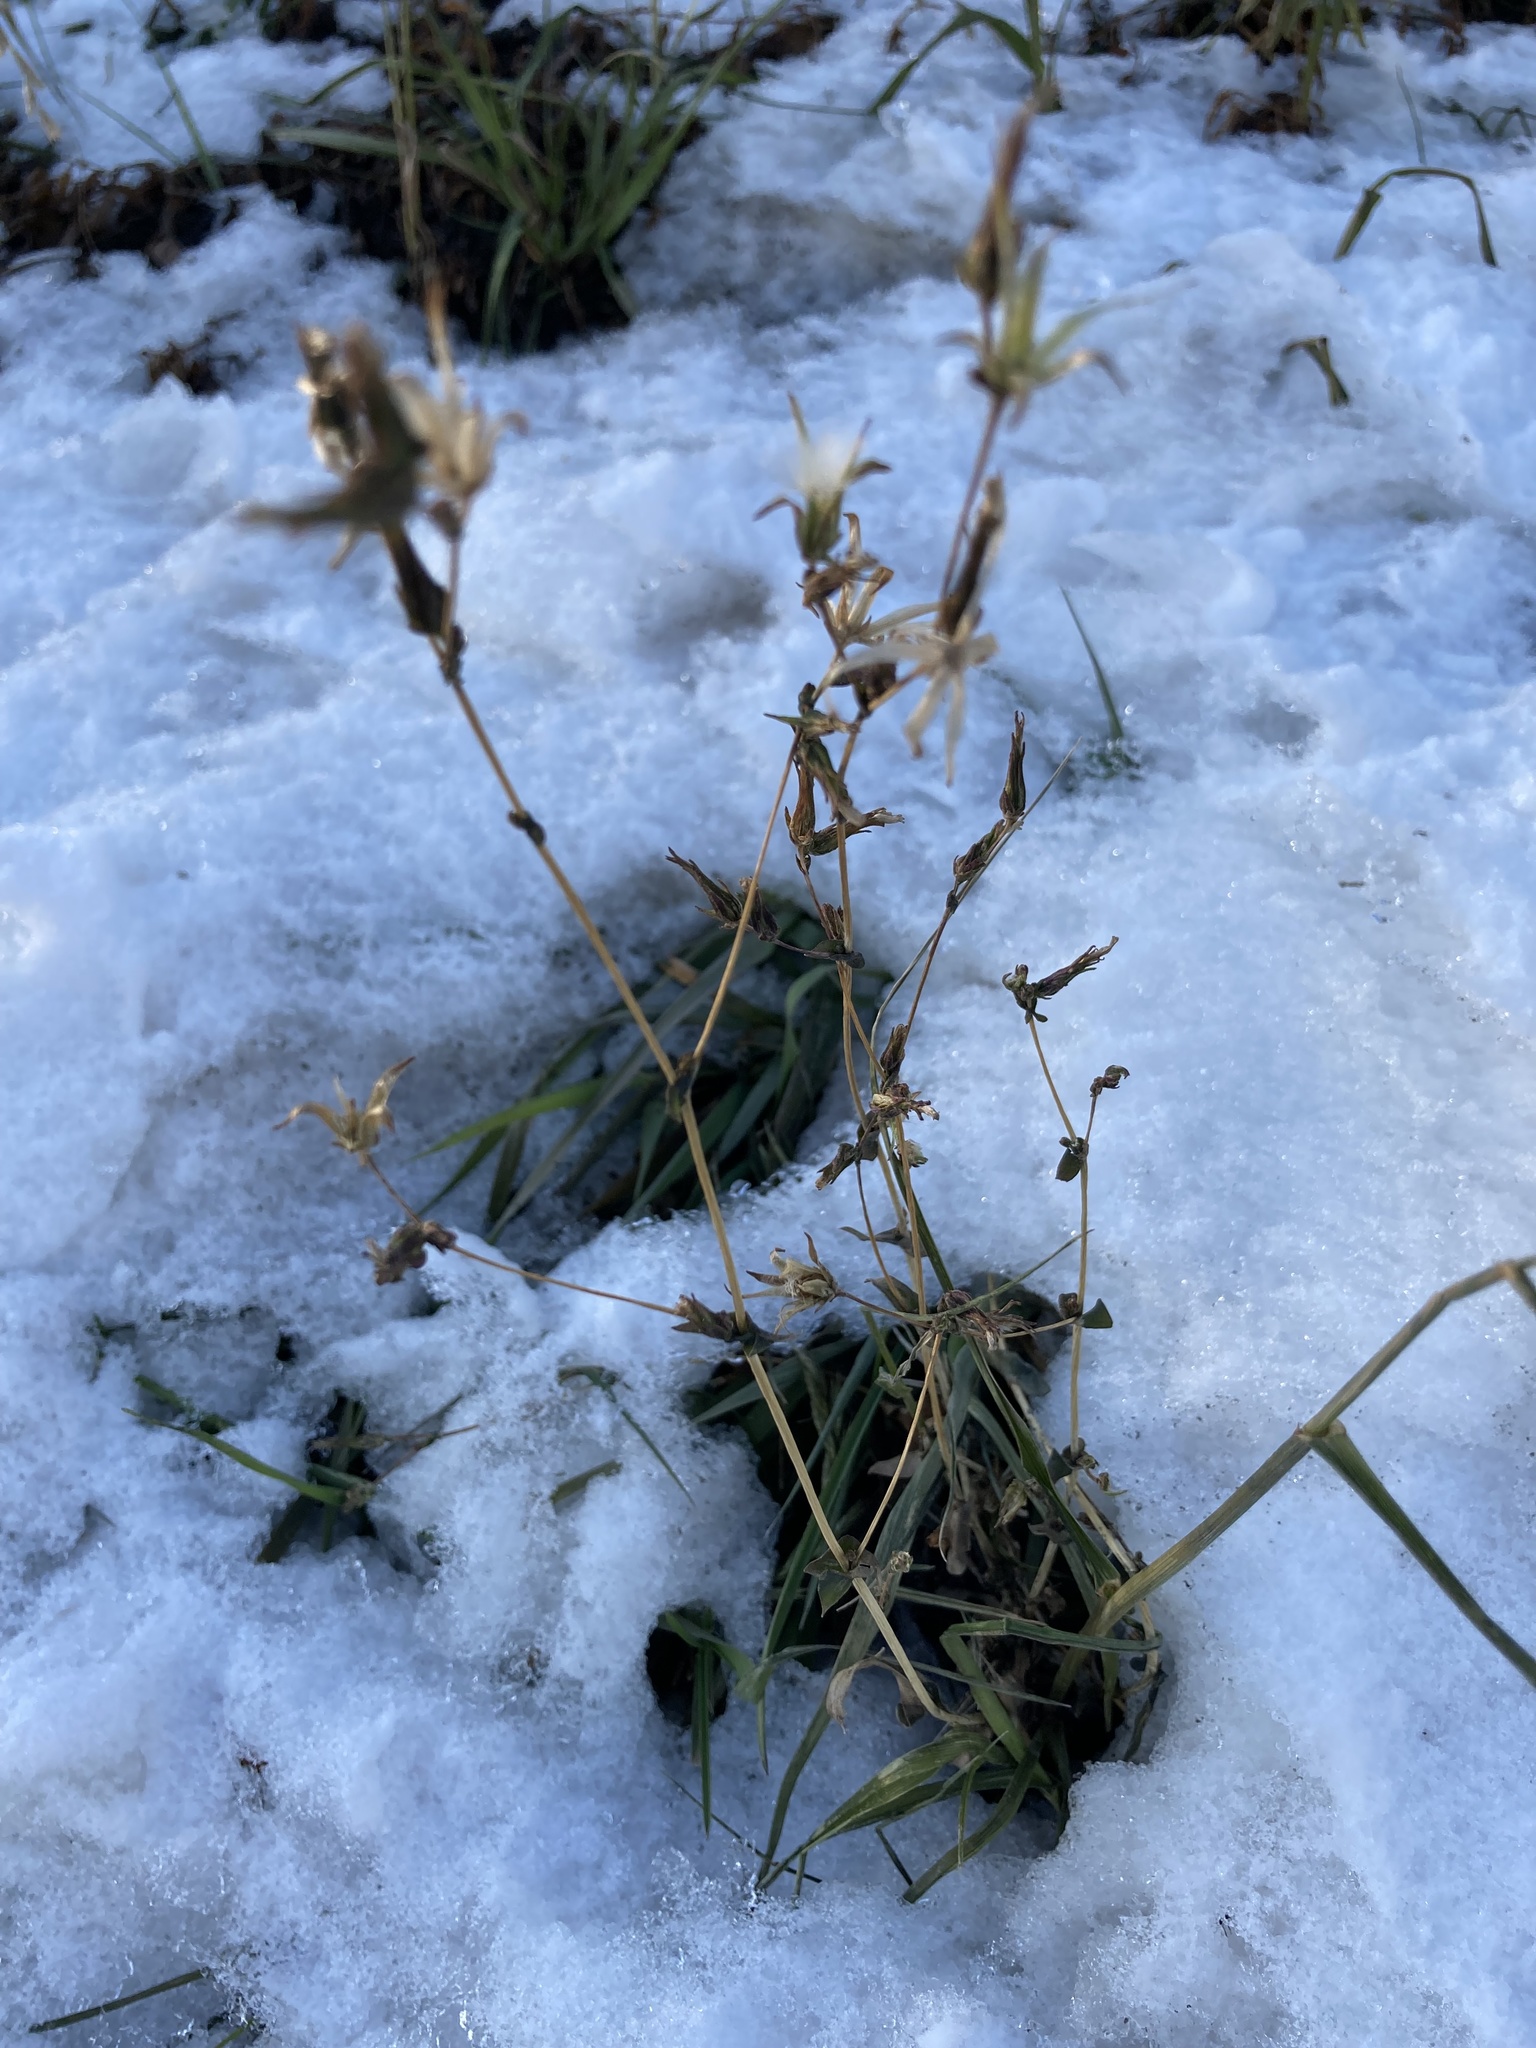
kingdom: Plantae
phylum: Tracheophyta
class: Magnoliopsida
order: Asterales
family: Asteraceae
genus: Lactuca
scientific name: Lactuca serriola
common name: Prickly lettuce
